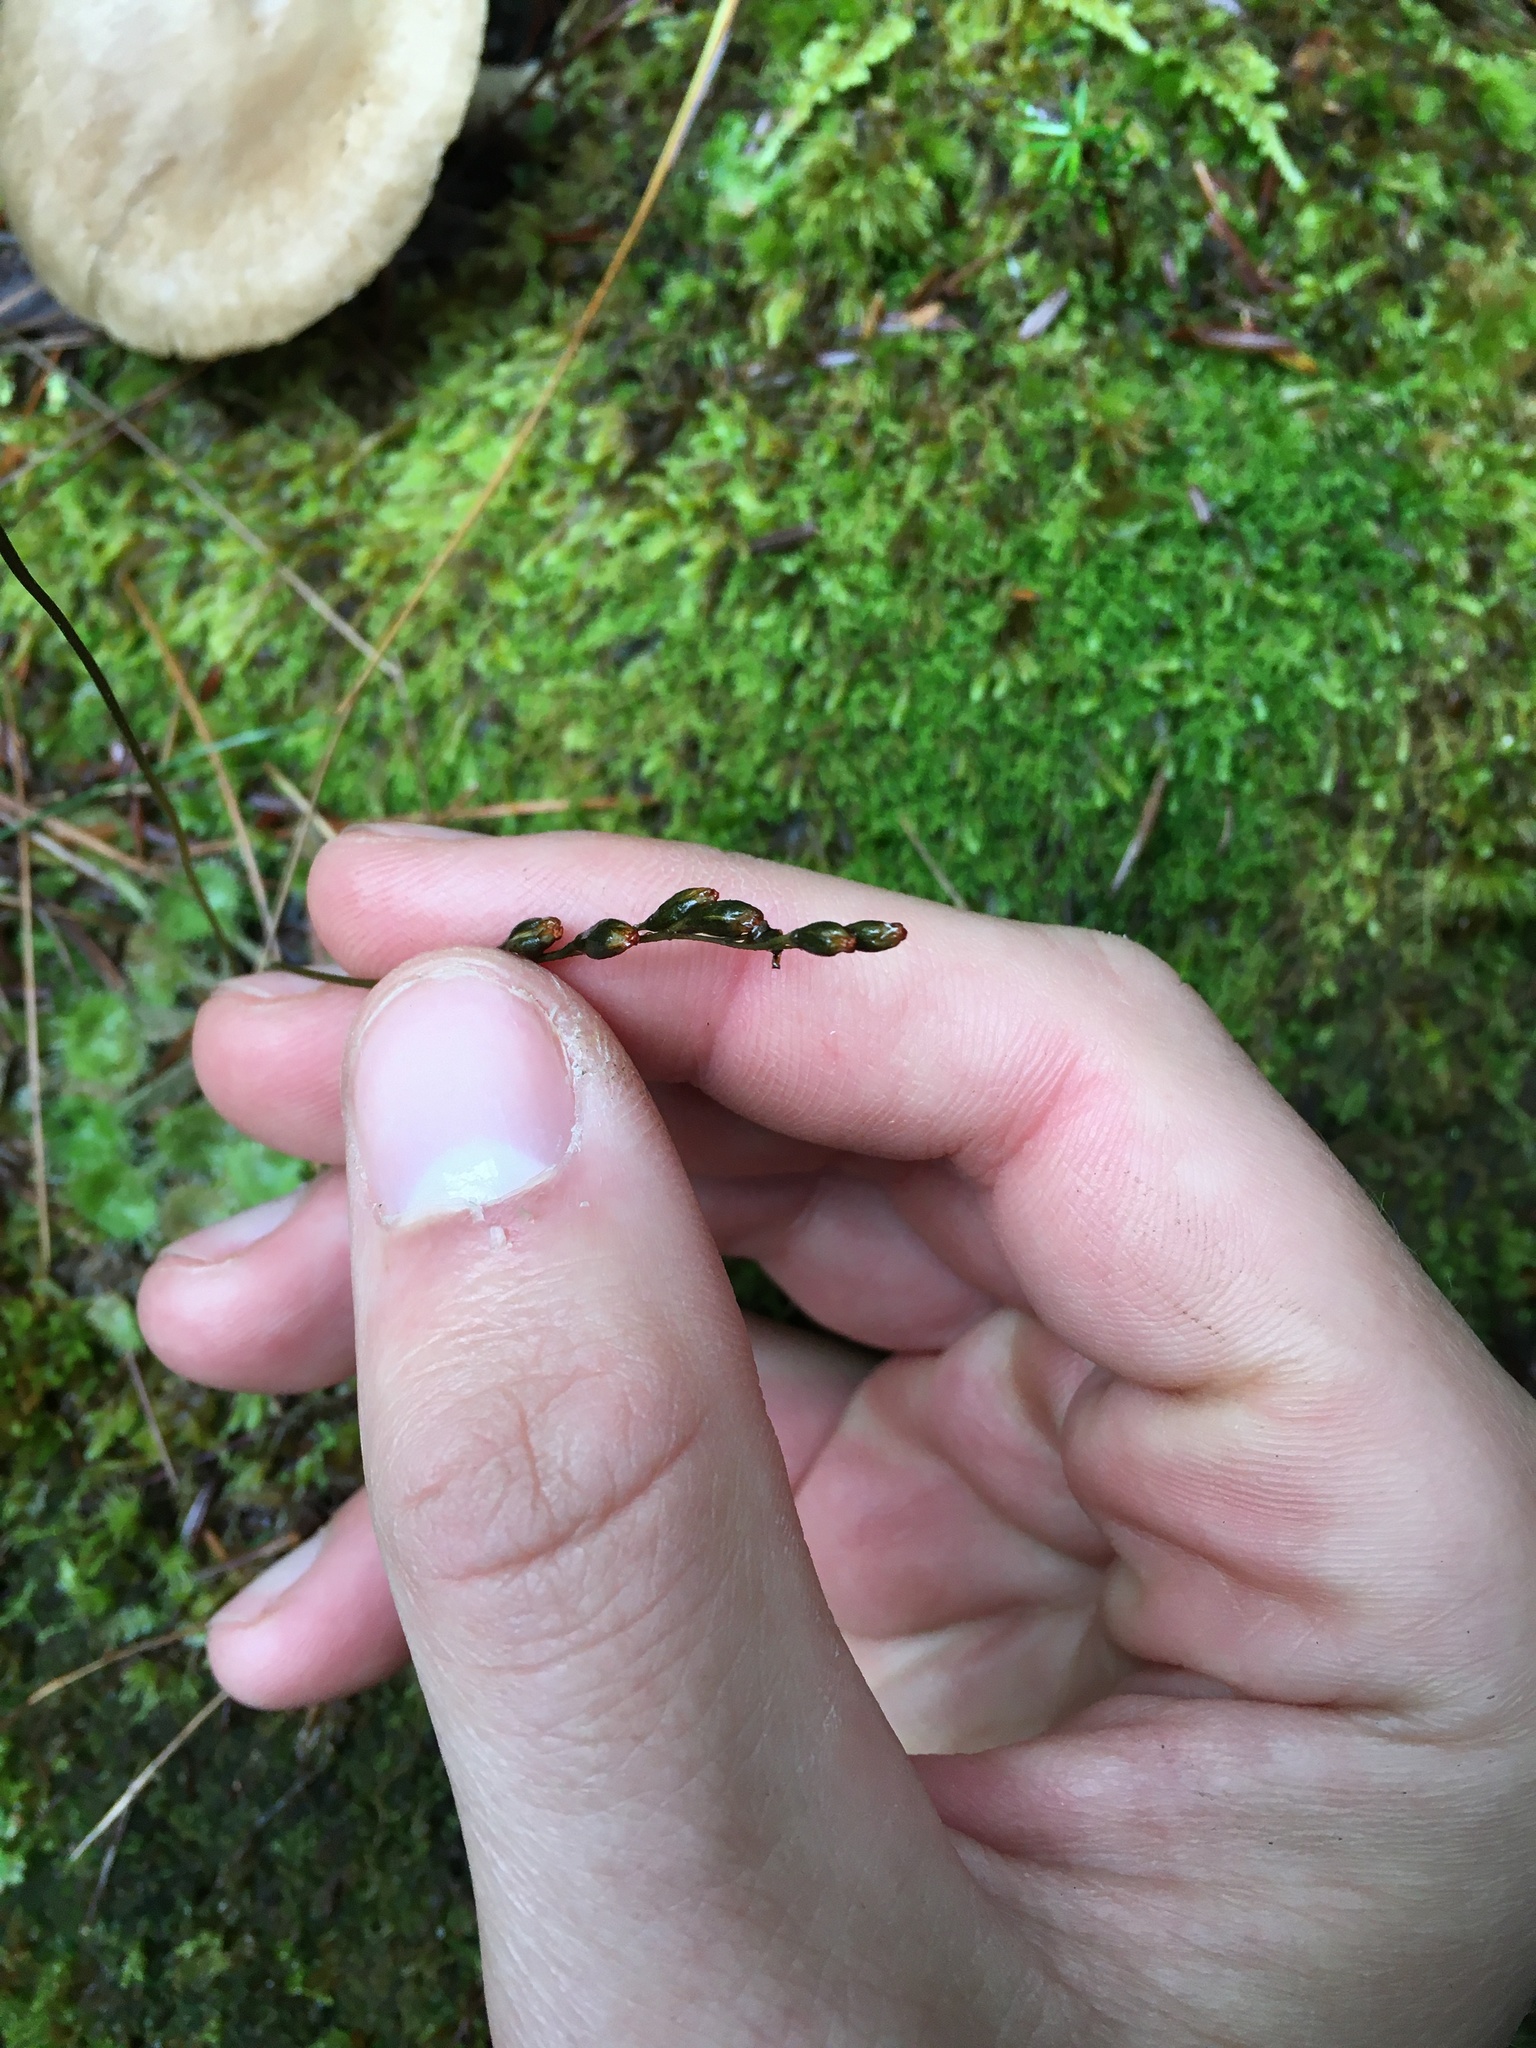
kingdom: Plantae
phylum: Tracheophyta
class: Magnoliopsida
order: Caryophyllales
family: Droseraceae
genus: Drosera
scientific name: Drosera rotundifolia
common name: Round-leaved sundew
